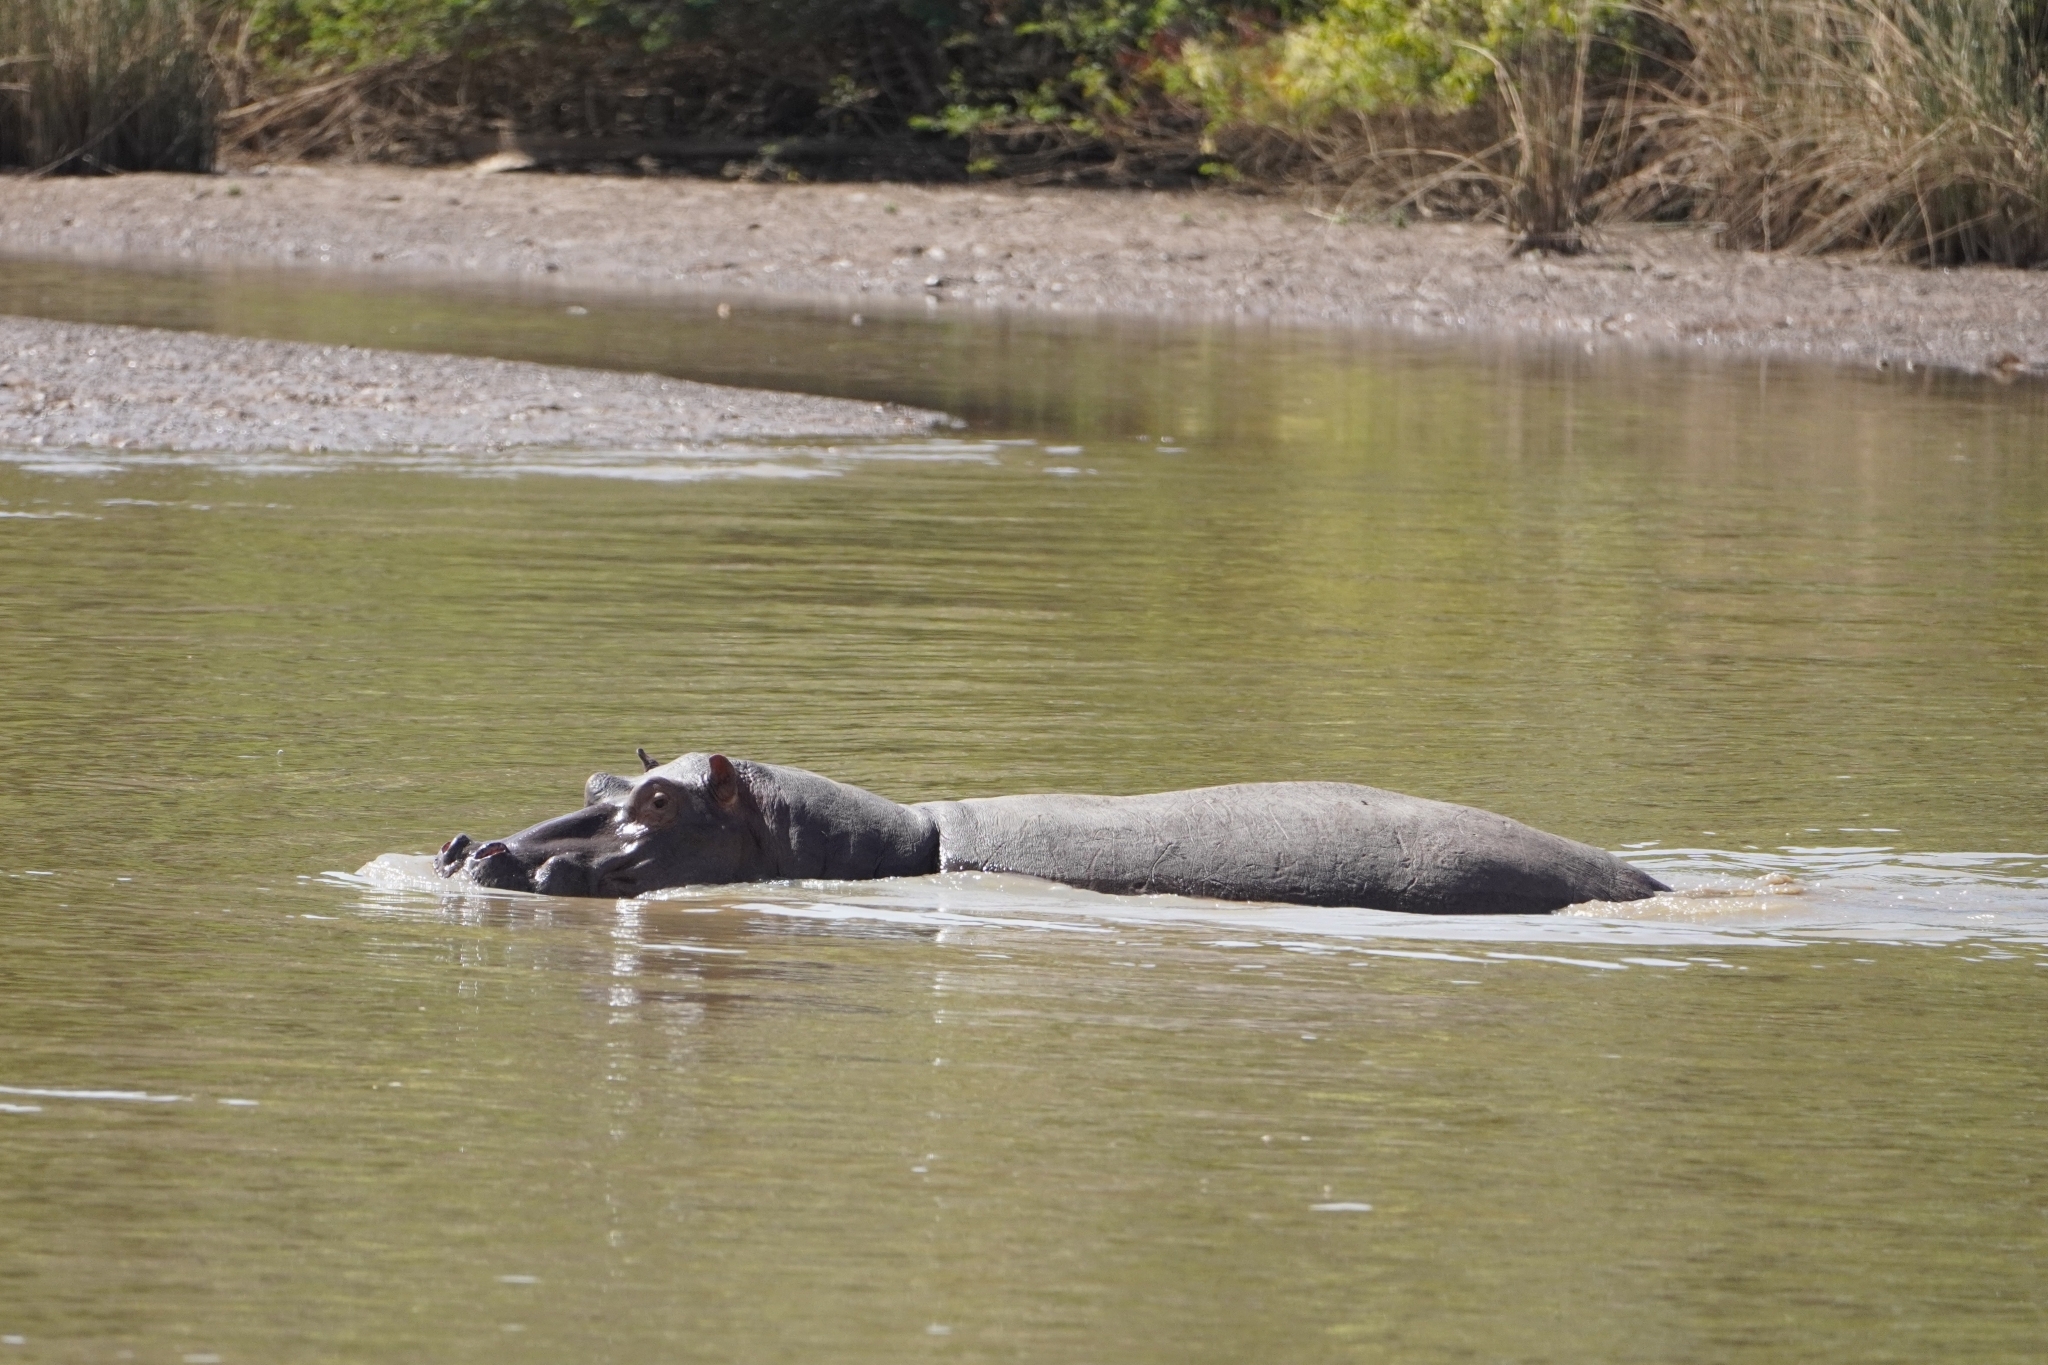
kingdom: Animalia
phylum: Chordata
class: Mammalia
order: Artiodactyla
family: Hippopotamidae
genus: Hippopotamus
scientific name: Hippopotamus amphibius
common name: Common hippopotamus
